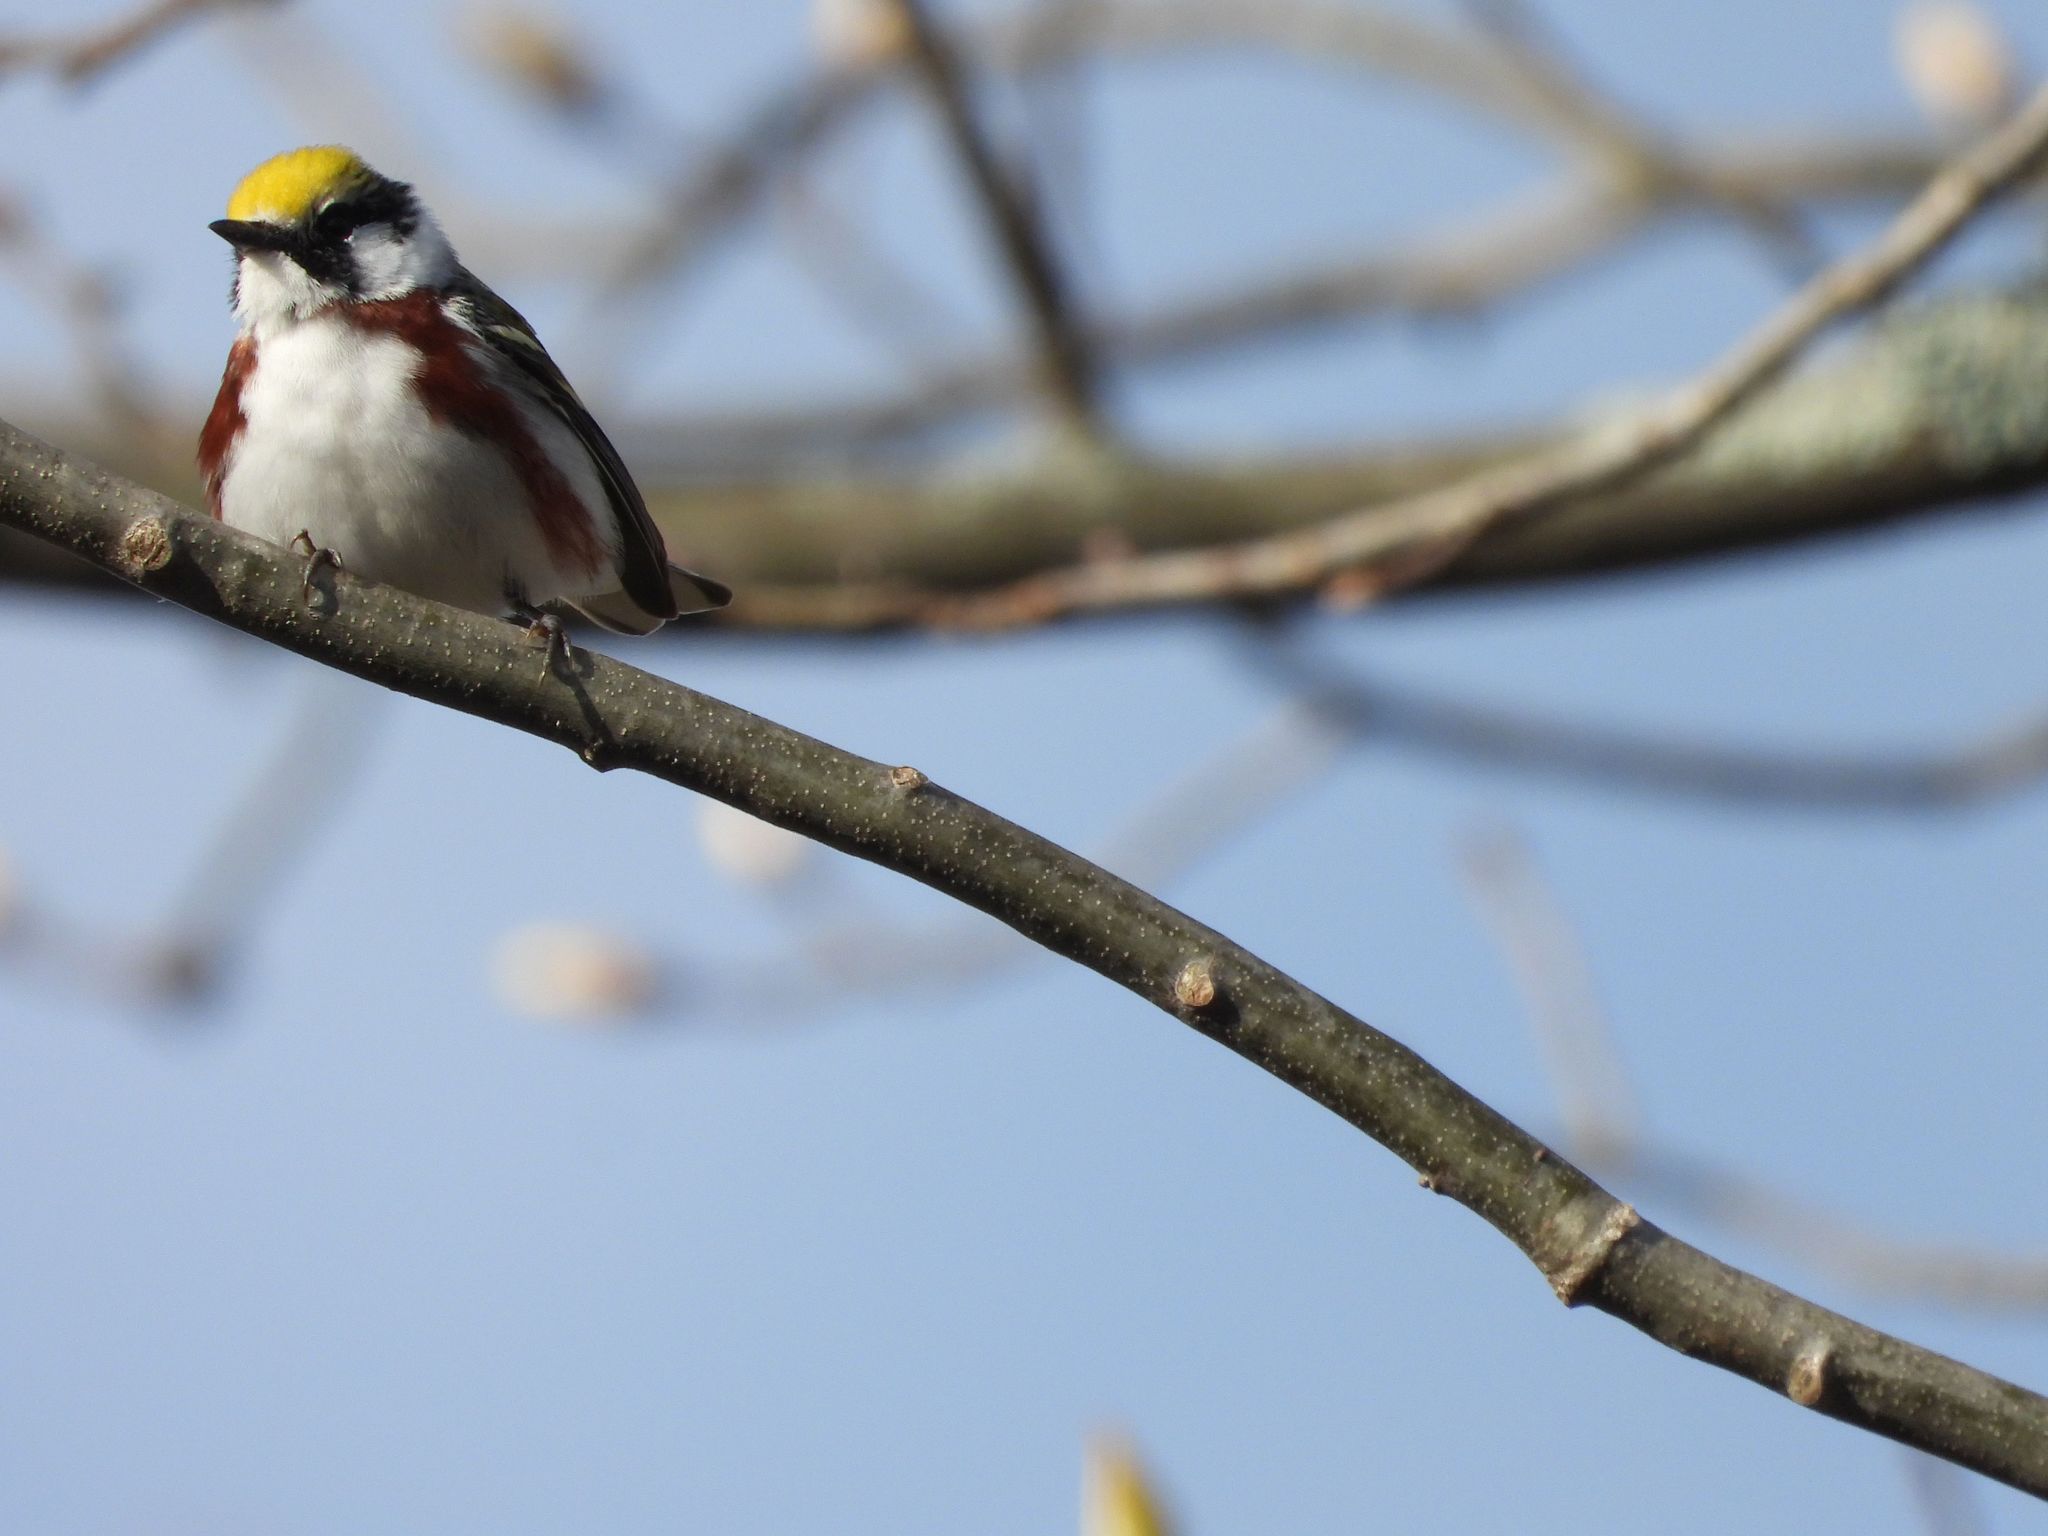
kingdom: Animalia
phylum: Chordata
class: Aves
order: Passeriformes
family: Parulidae
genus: Setophaga
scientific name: Setophaga pensylvanica
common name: Chestnut-sided warbler
